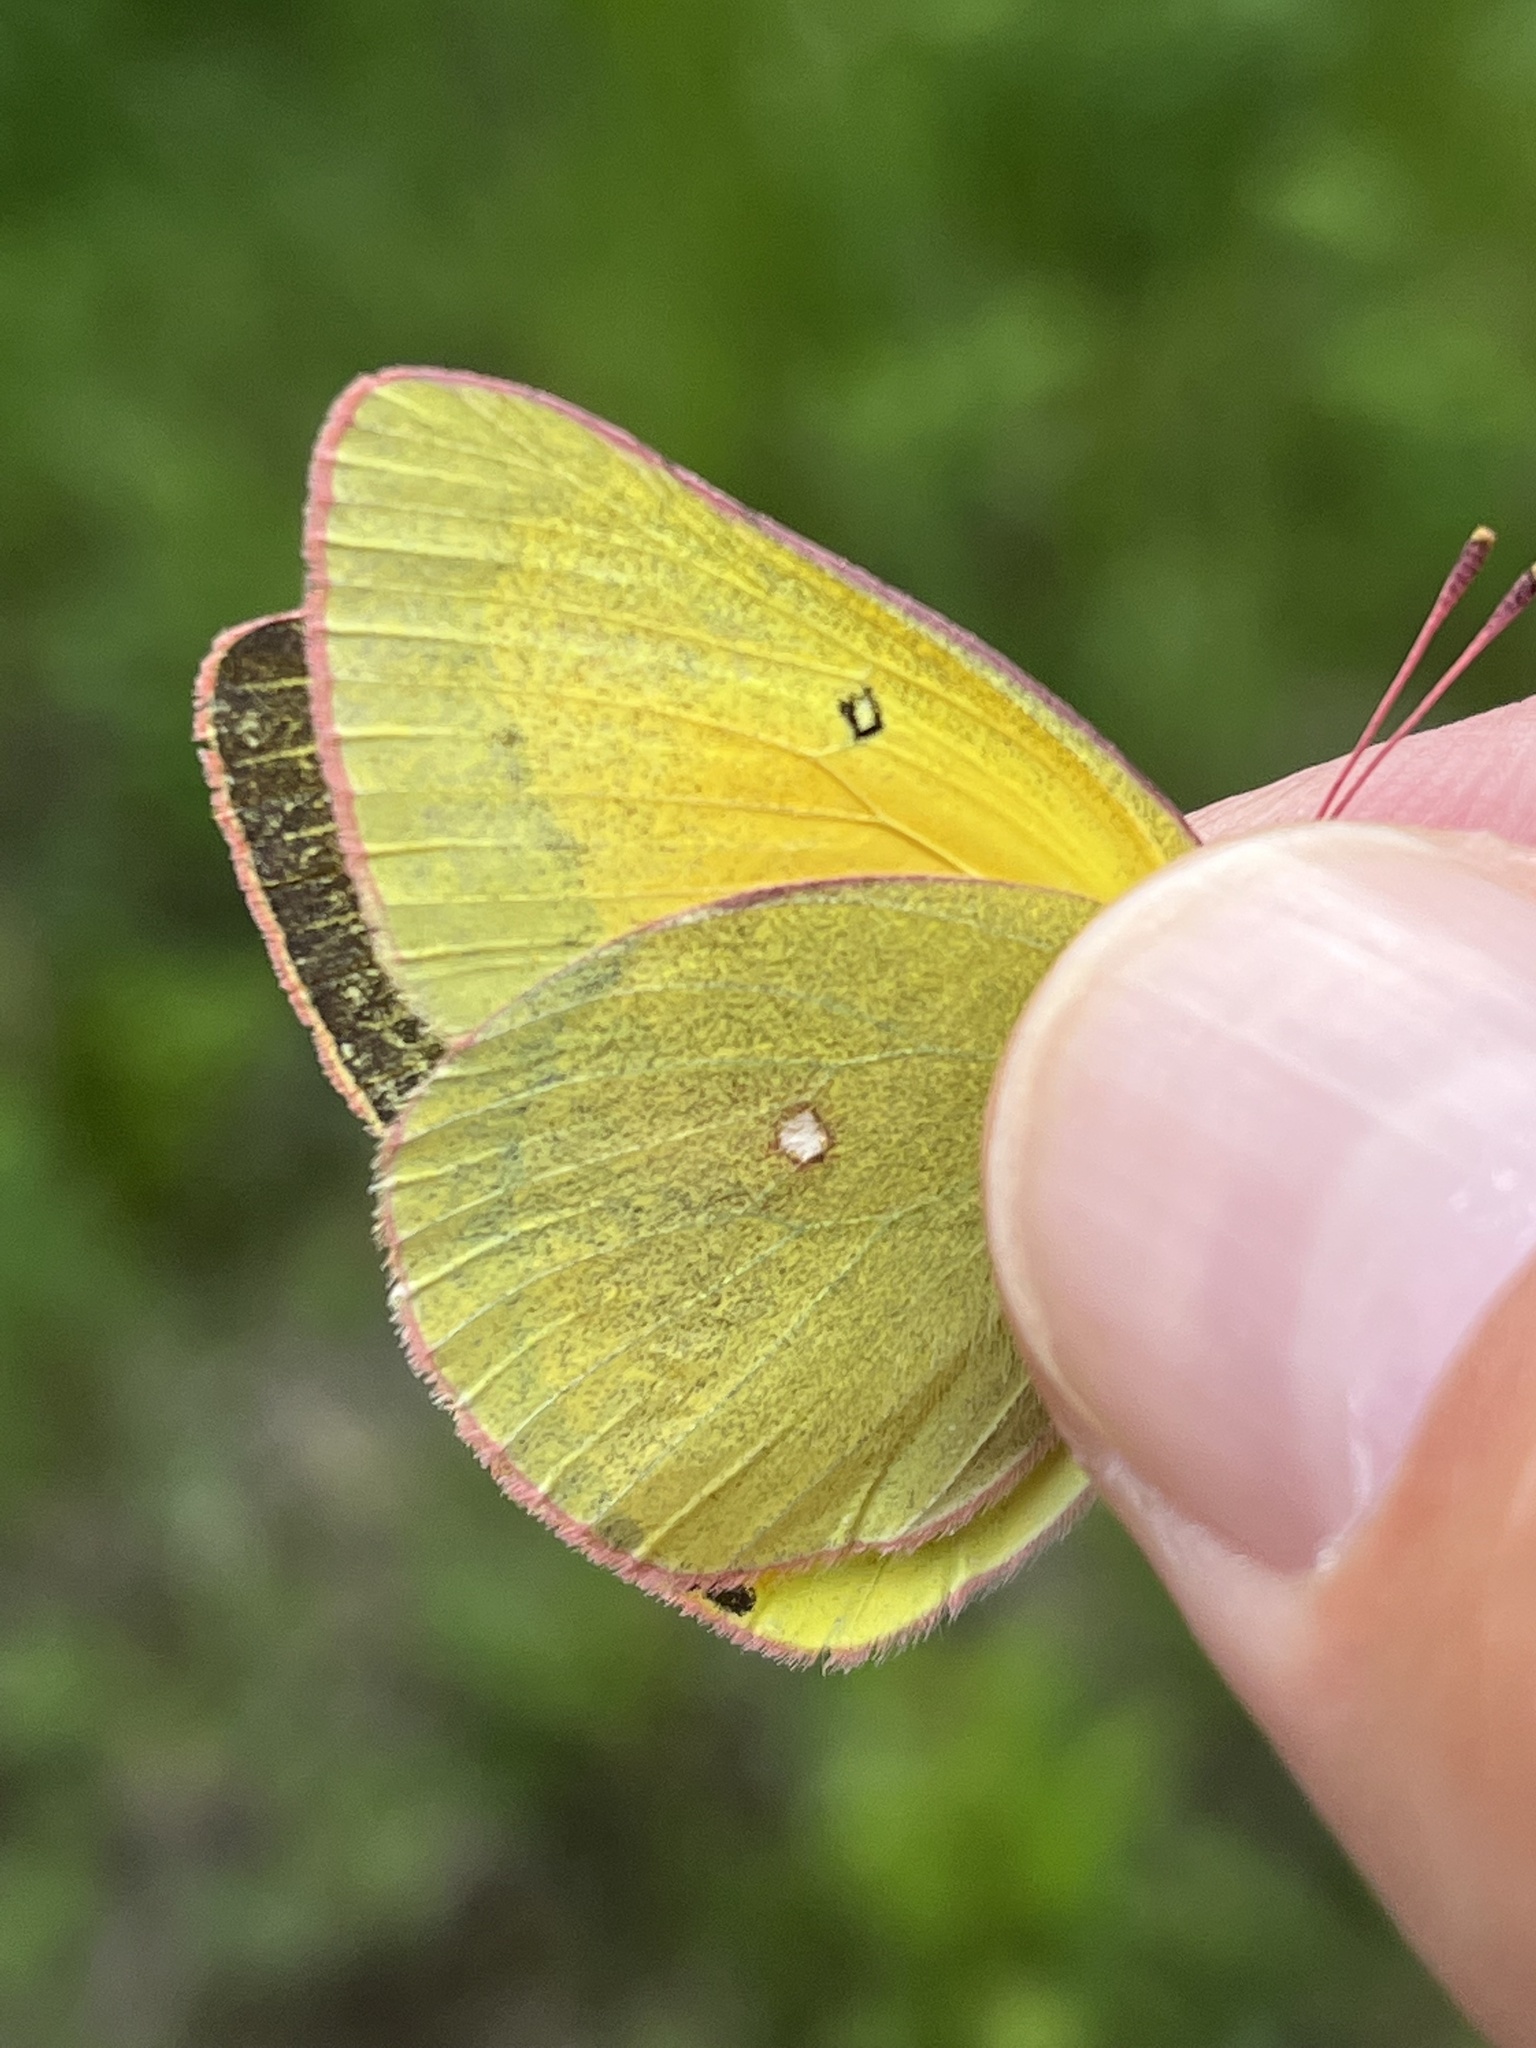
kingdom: Animalia
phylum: Arthropoda
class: Insecta
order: Lepidoptera
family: Pieridae
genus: Colias
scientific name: Colias christina
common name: Christina sulphur
